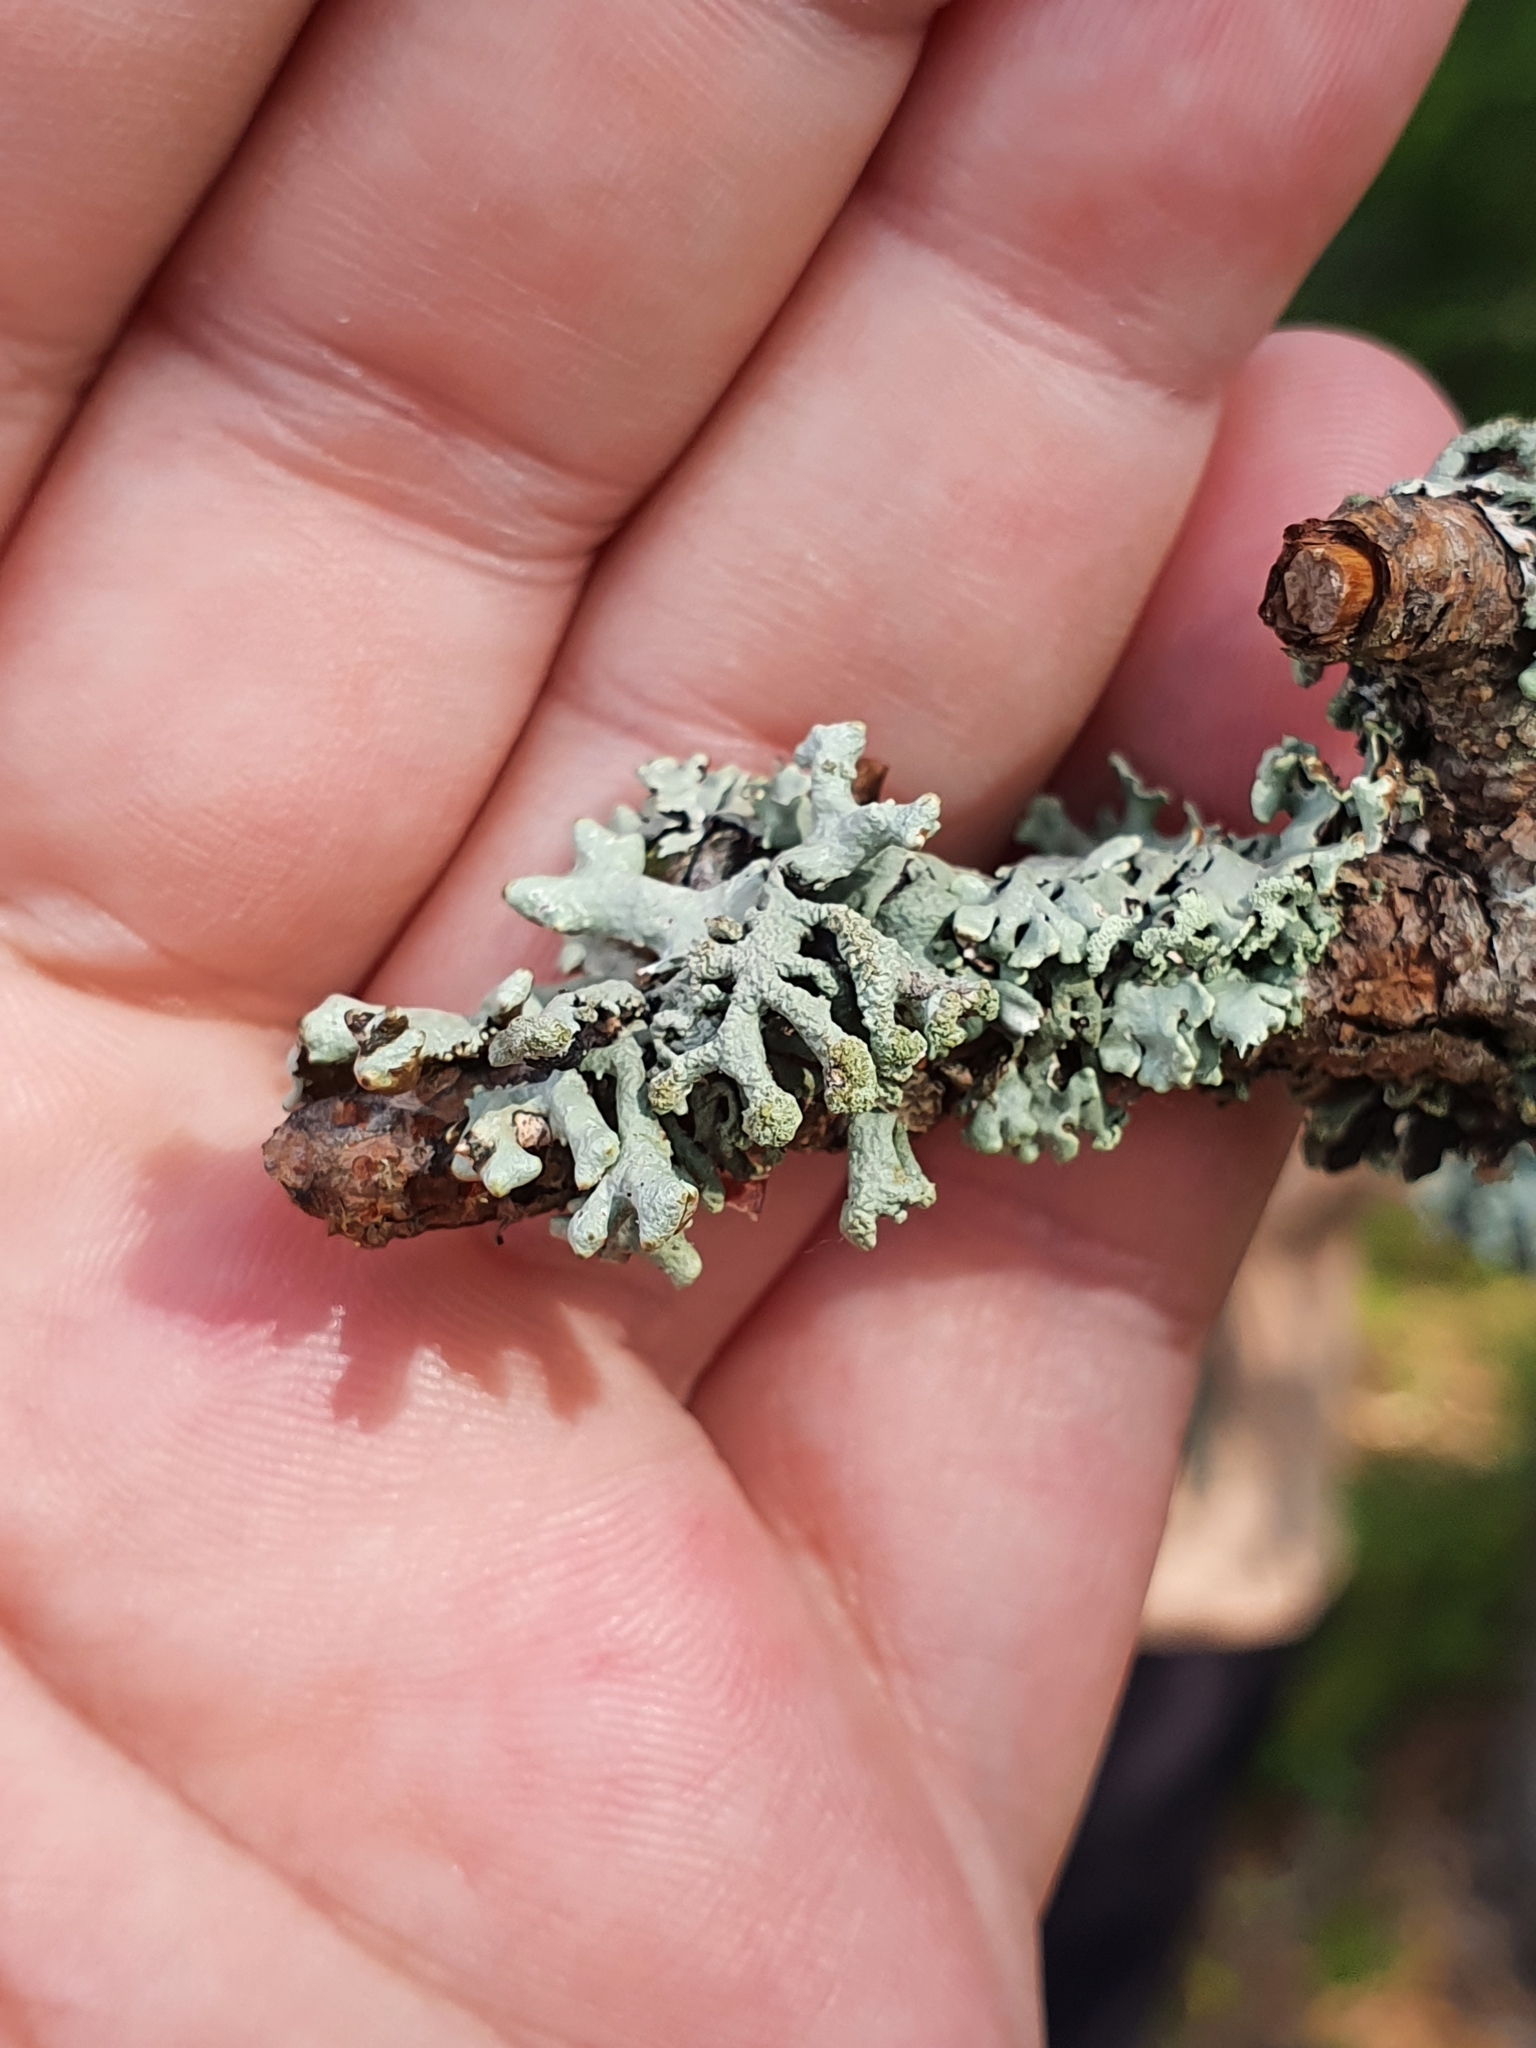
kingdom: Fungi
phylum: Ascomycota
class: Lecanoromycetes
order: Lecanorales
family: Parmeliaceae
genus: Hypogymnia
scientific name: Hypogymnia tubulosa
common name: Powder-headed tube lichen
